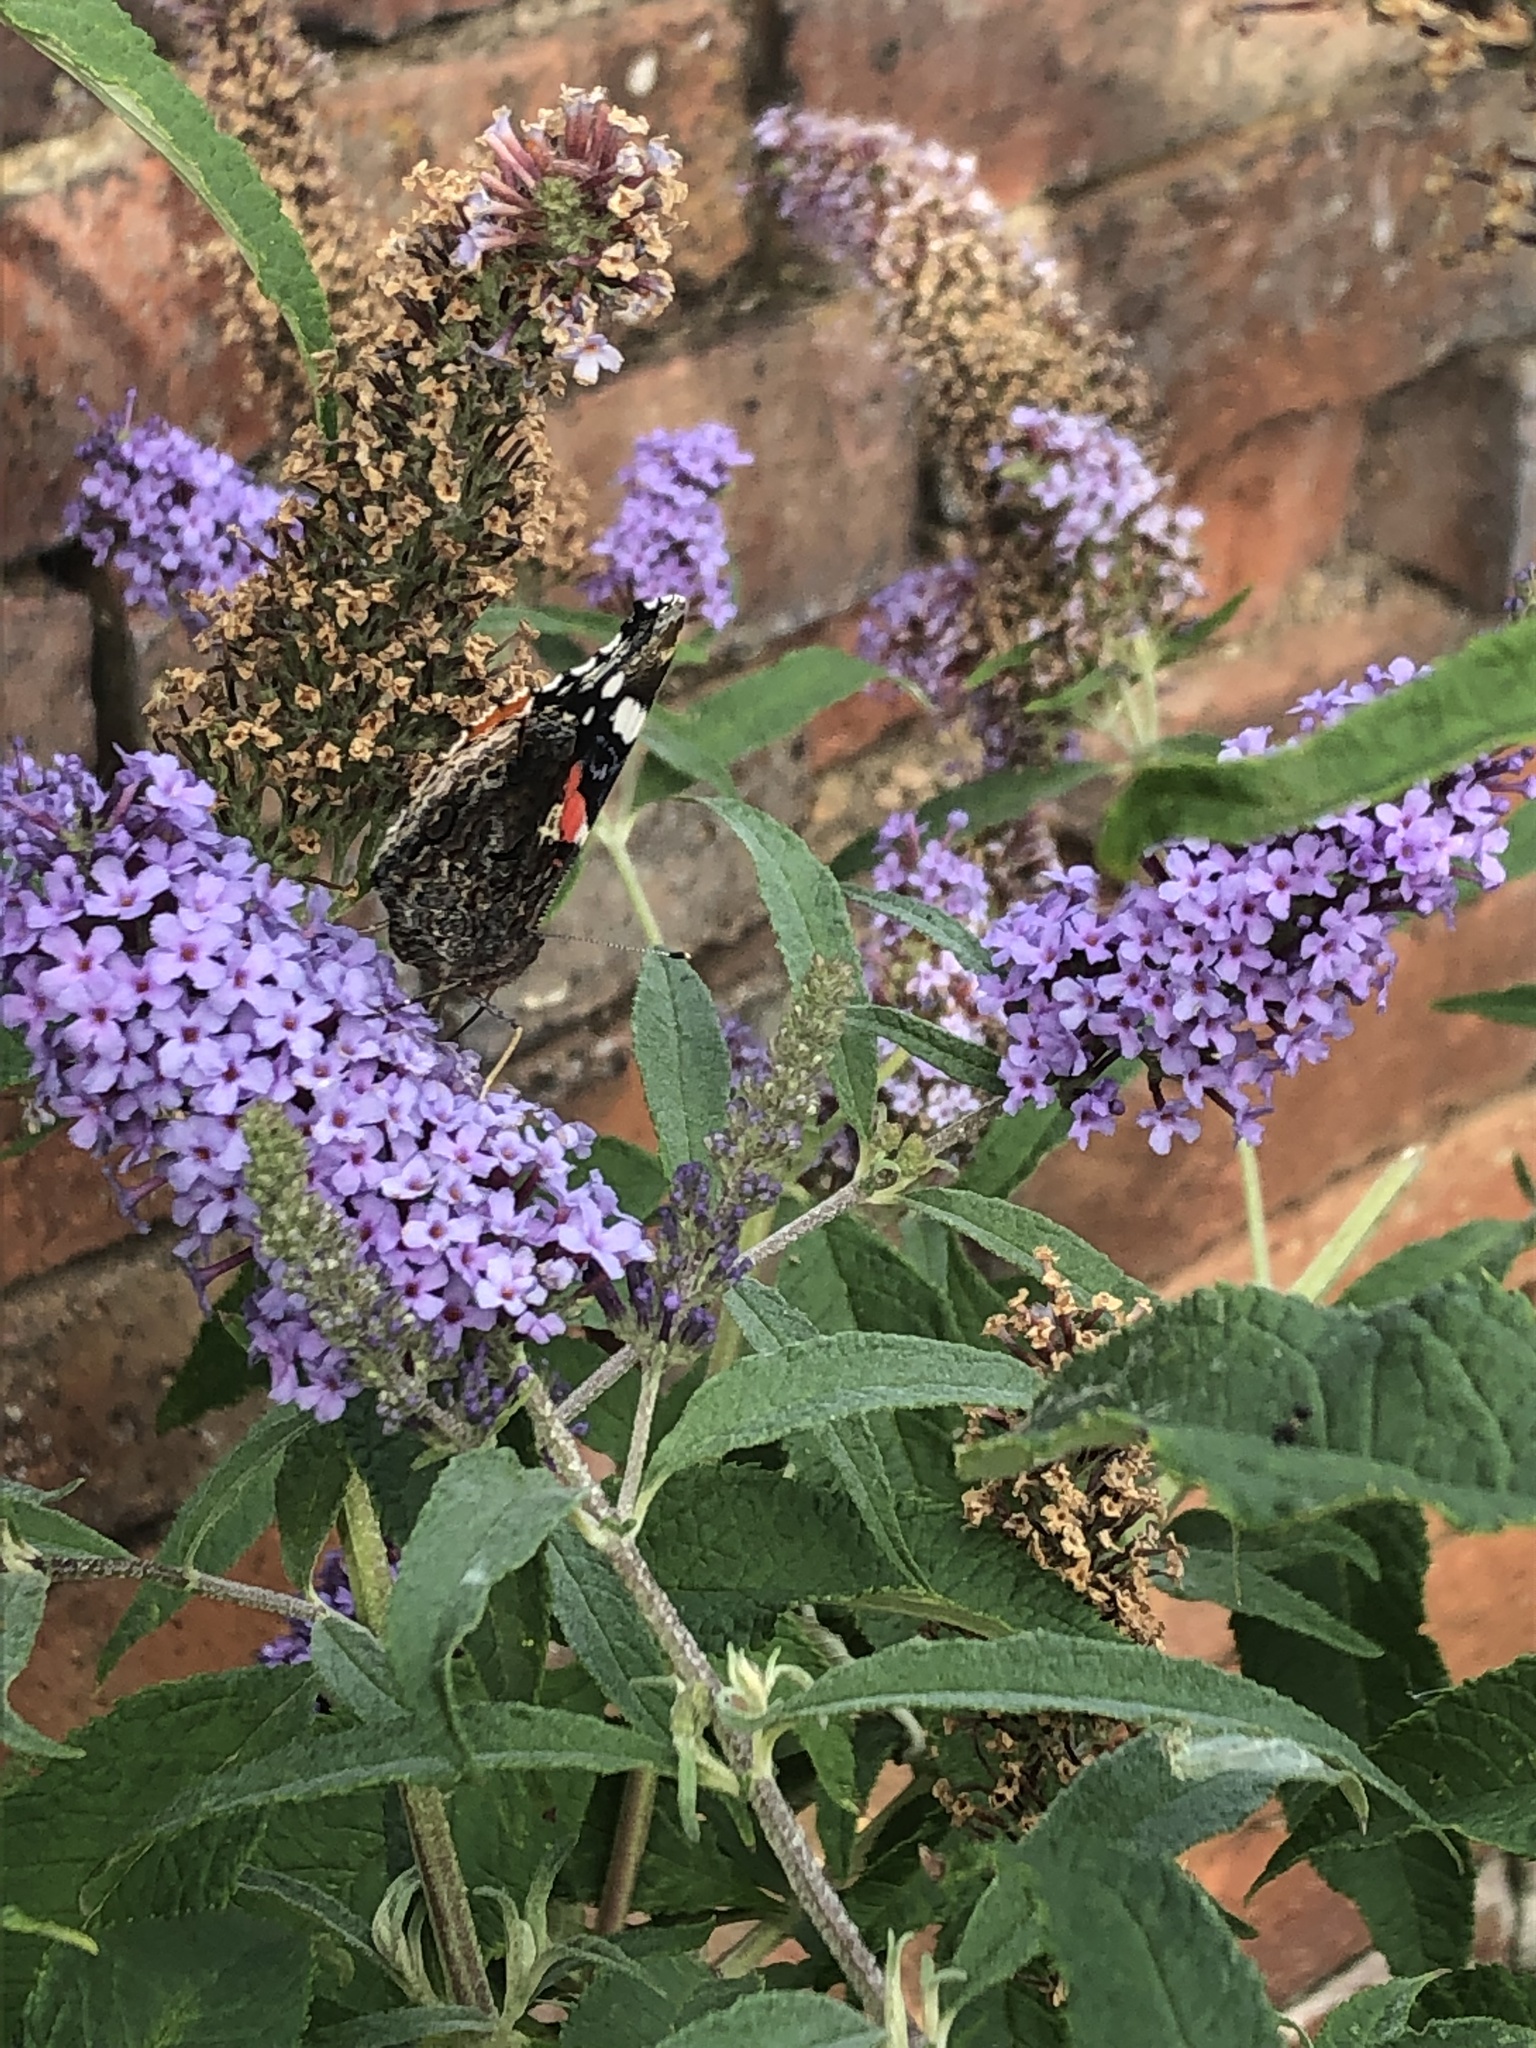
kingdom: Plantae
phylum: Tracheophyta
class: Magnoliopsida
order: Lamiales
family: Scrophulariaceae
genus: Buddleja
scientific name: Buddleja davidii
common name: Butterfly-bush
